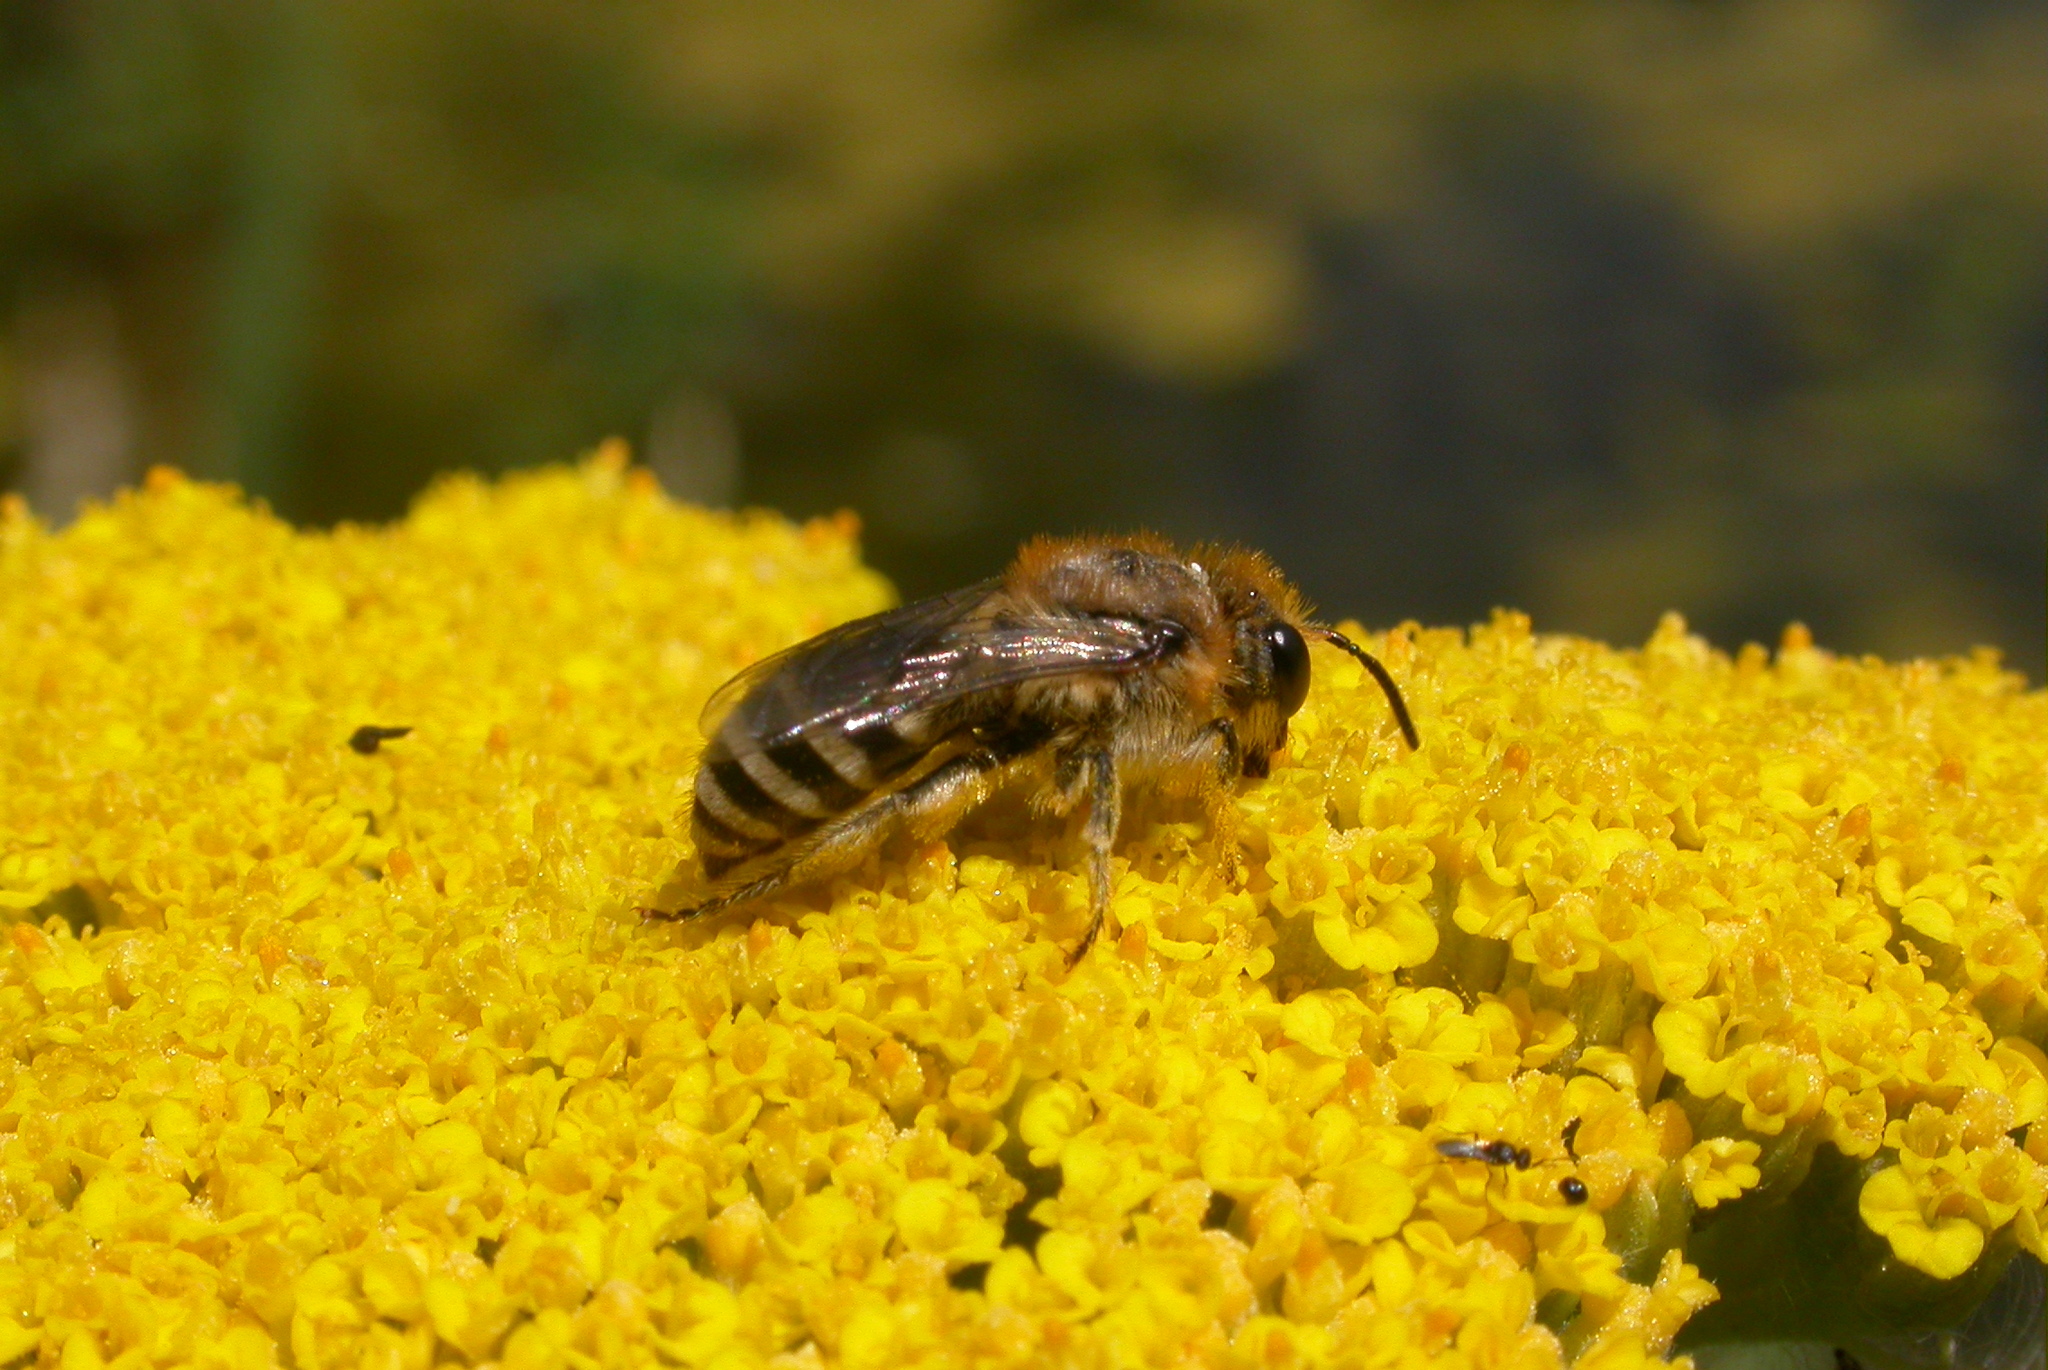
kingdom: Animalia
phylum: Arthropoda
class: Insecta
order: Hymenoptera
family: Colletidae
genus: Colletes
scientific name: Colletes
